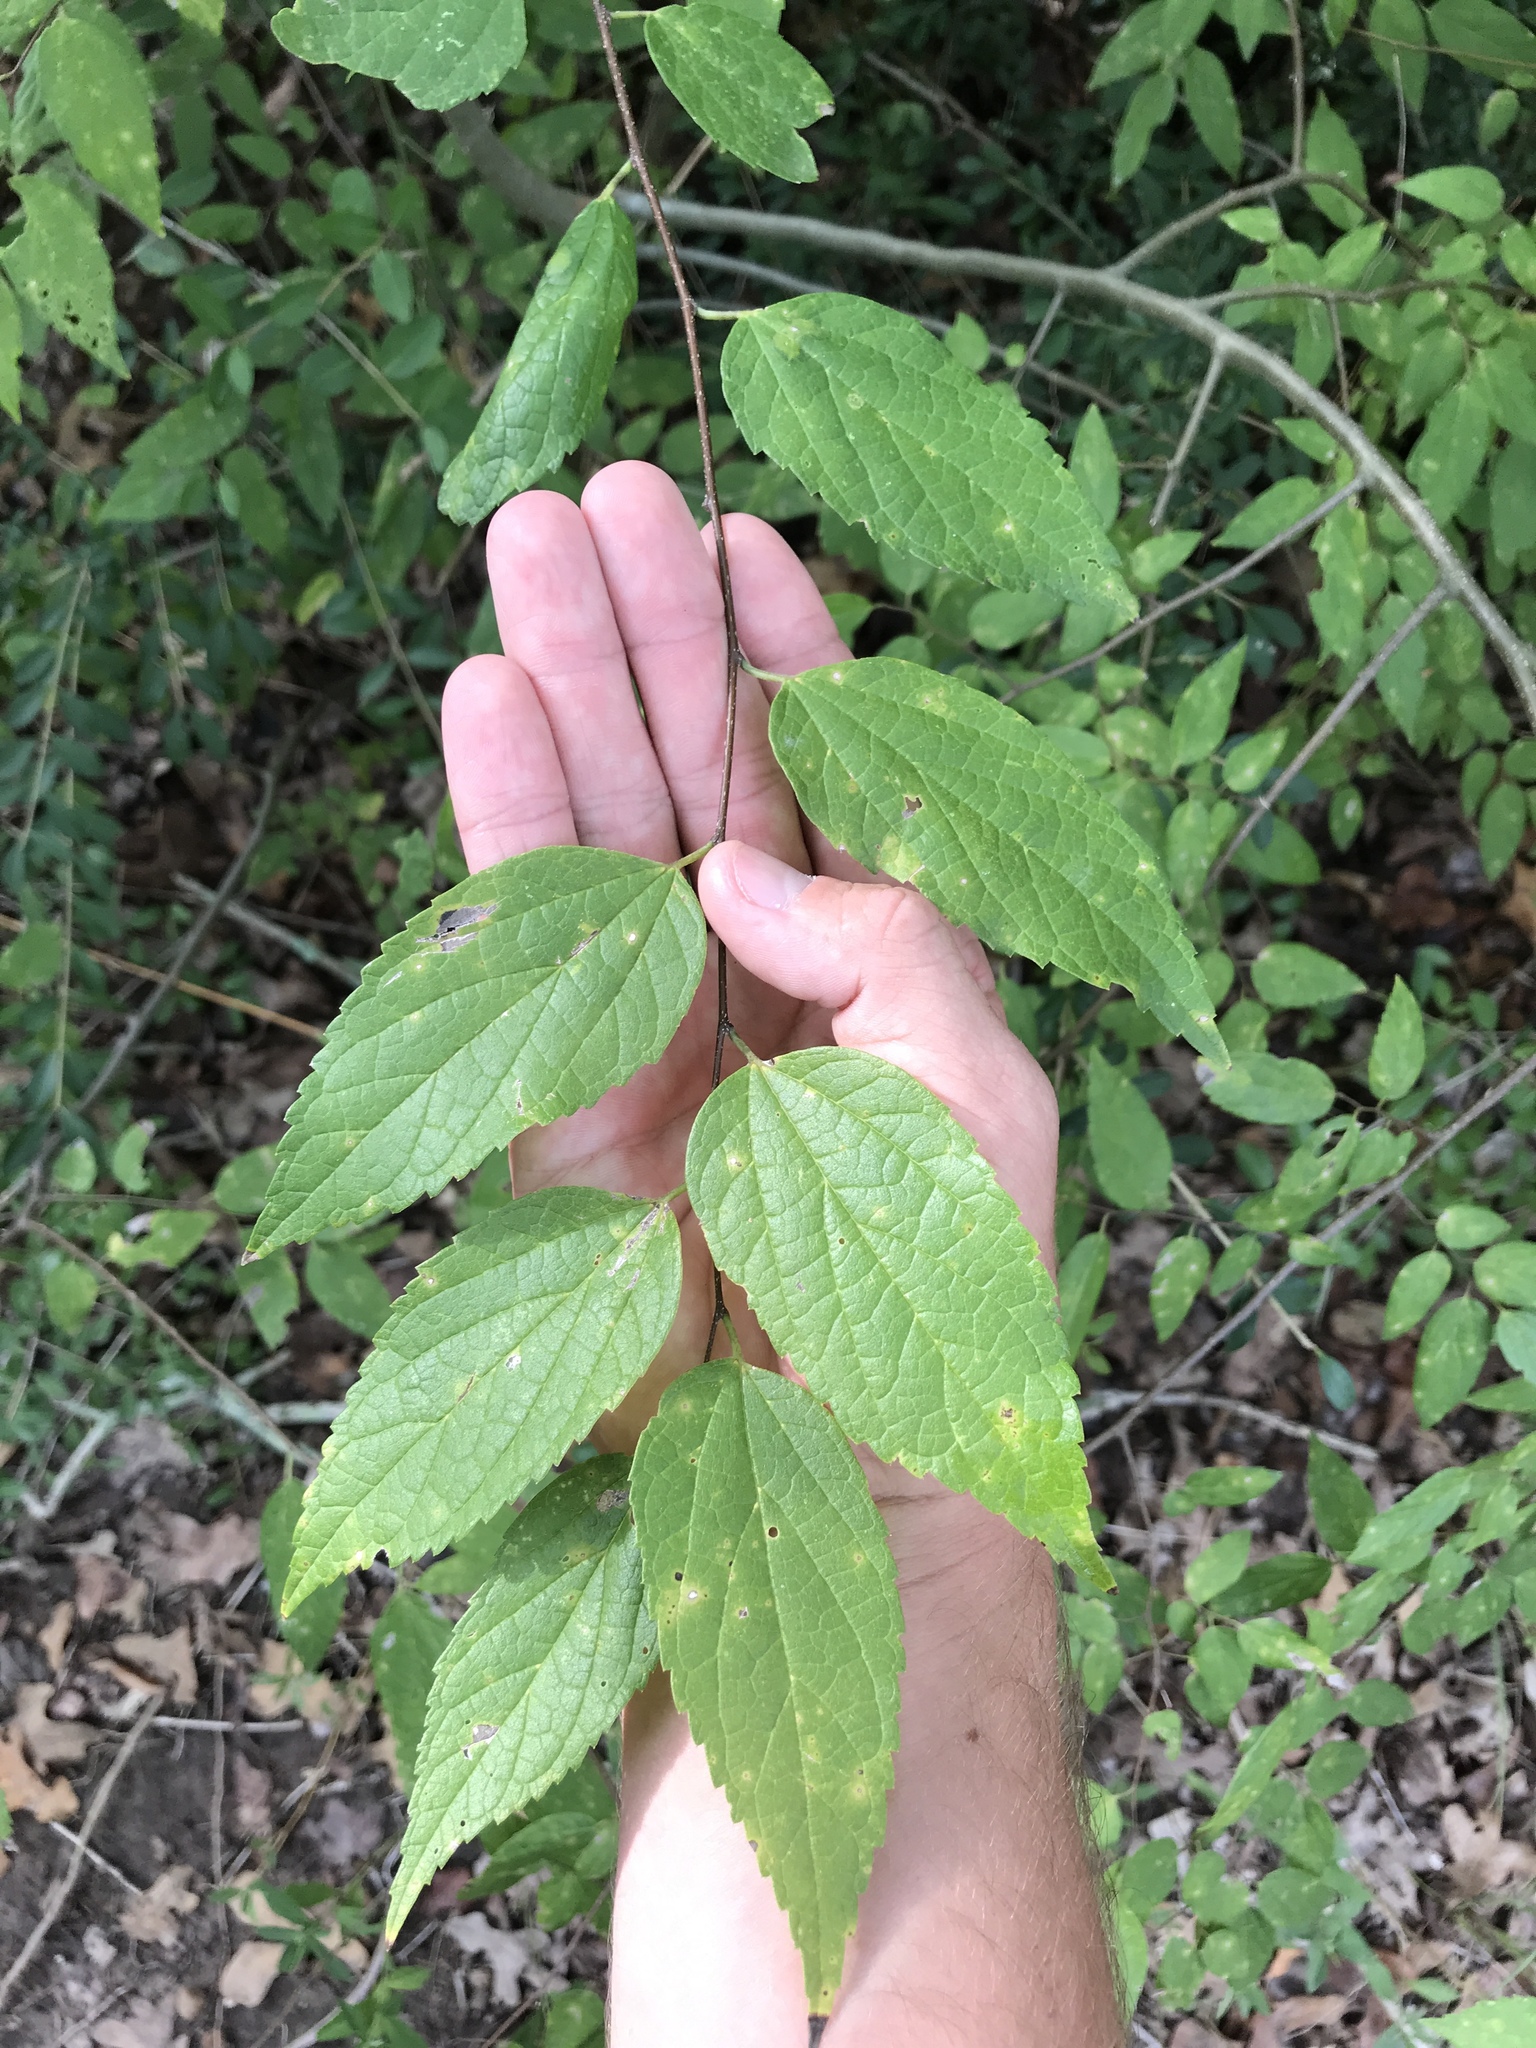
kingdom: Plantae
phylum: Tracheophyta
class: Magnoliopsida
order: Rosales
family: Cannabaceae
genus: Celtis
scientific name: Celtis laevigata
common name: Sugarberry
